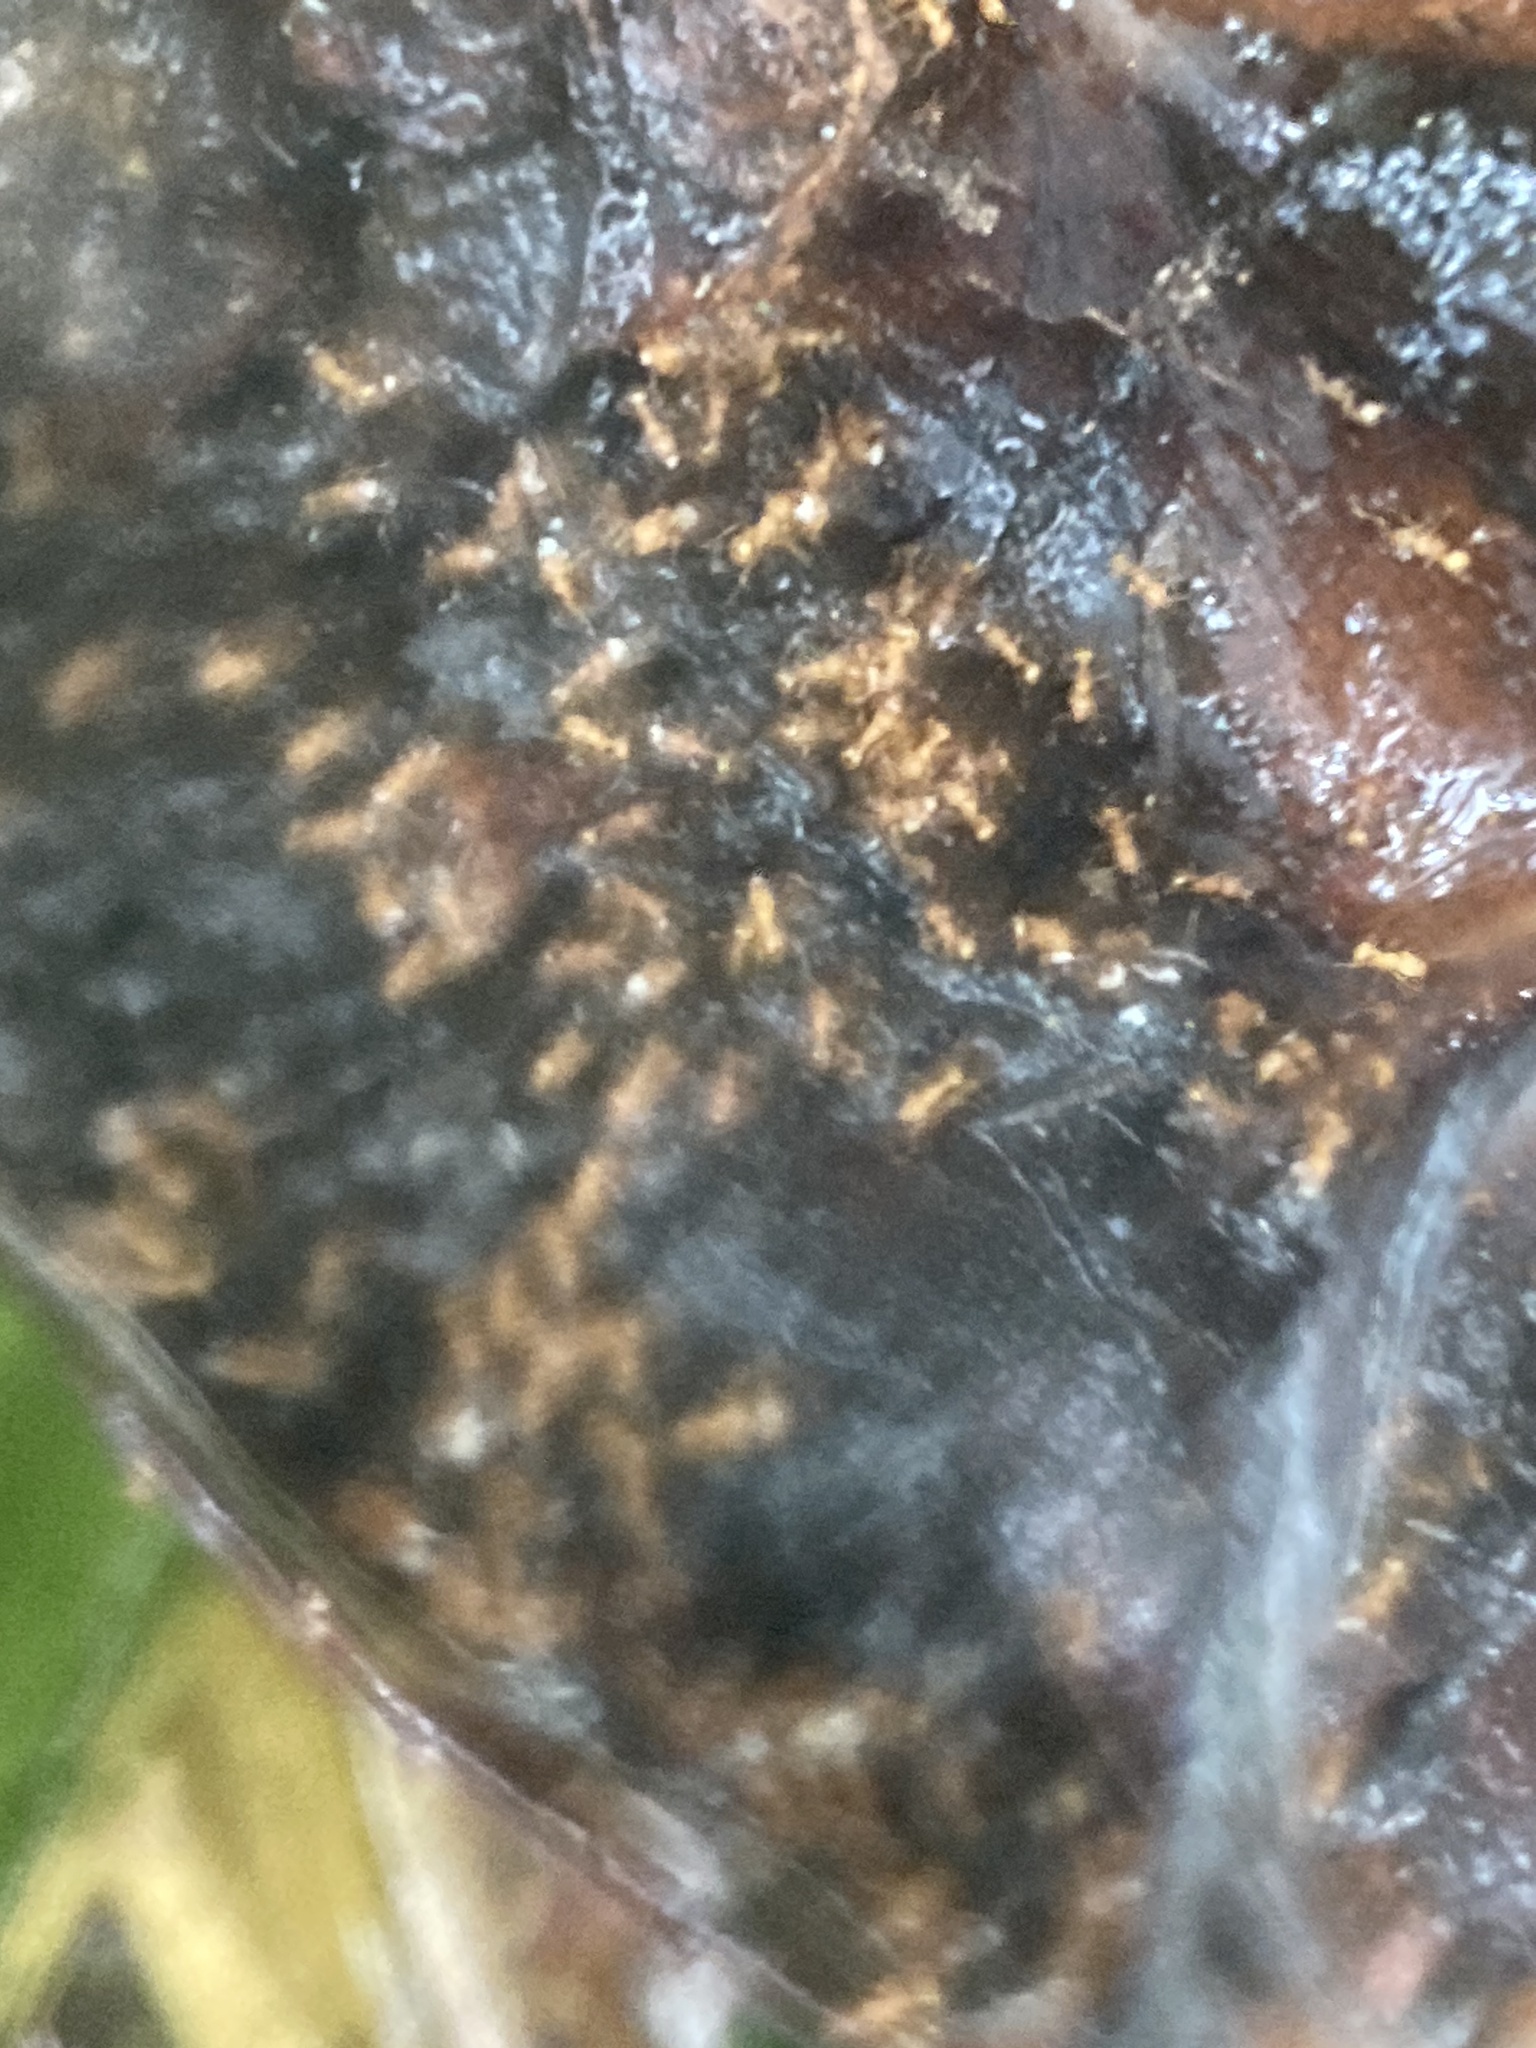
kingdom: Animalia
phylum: Arthropoda
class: Insecta
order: Hymenoptera
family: Formicidae
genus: Wasmannia
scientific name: Wasmannia auropunctata
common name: Little fire ant
